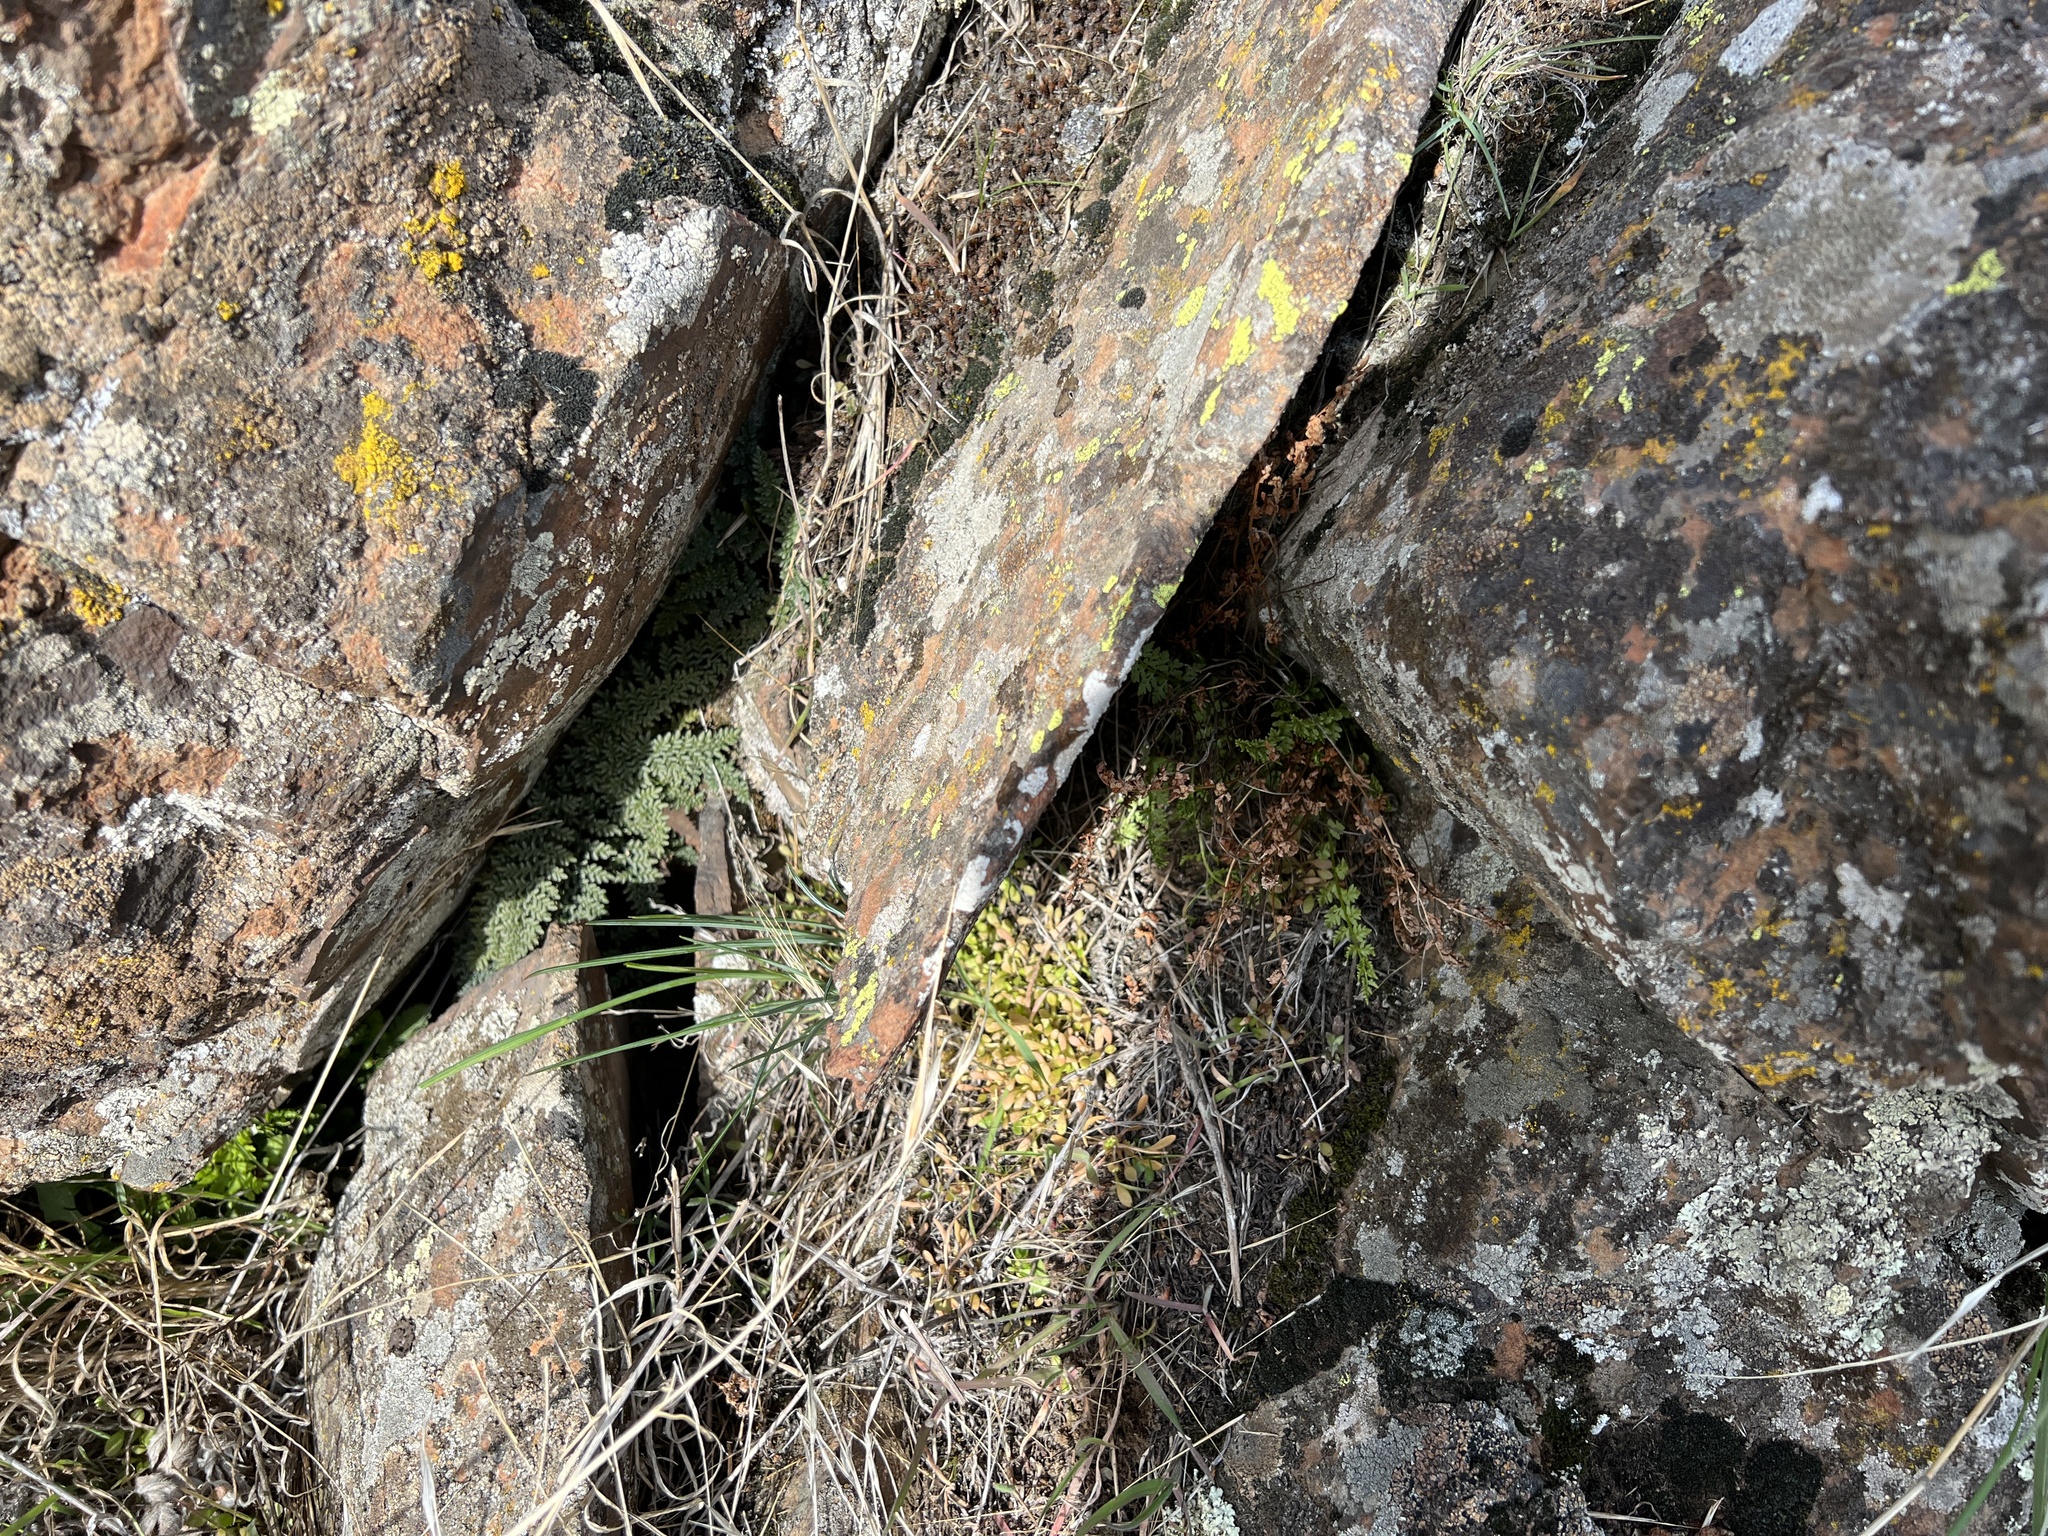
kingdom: Plantae
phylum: Tracheophyta
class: Polypodiopsida
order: Polypodiales
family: Woodsiaceae
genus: Physematium
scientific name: Physematium oreganum
